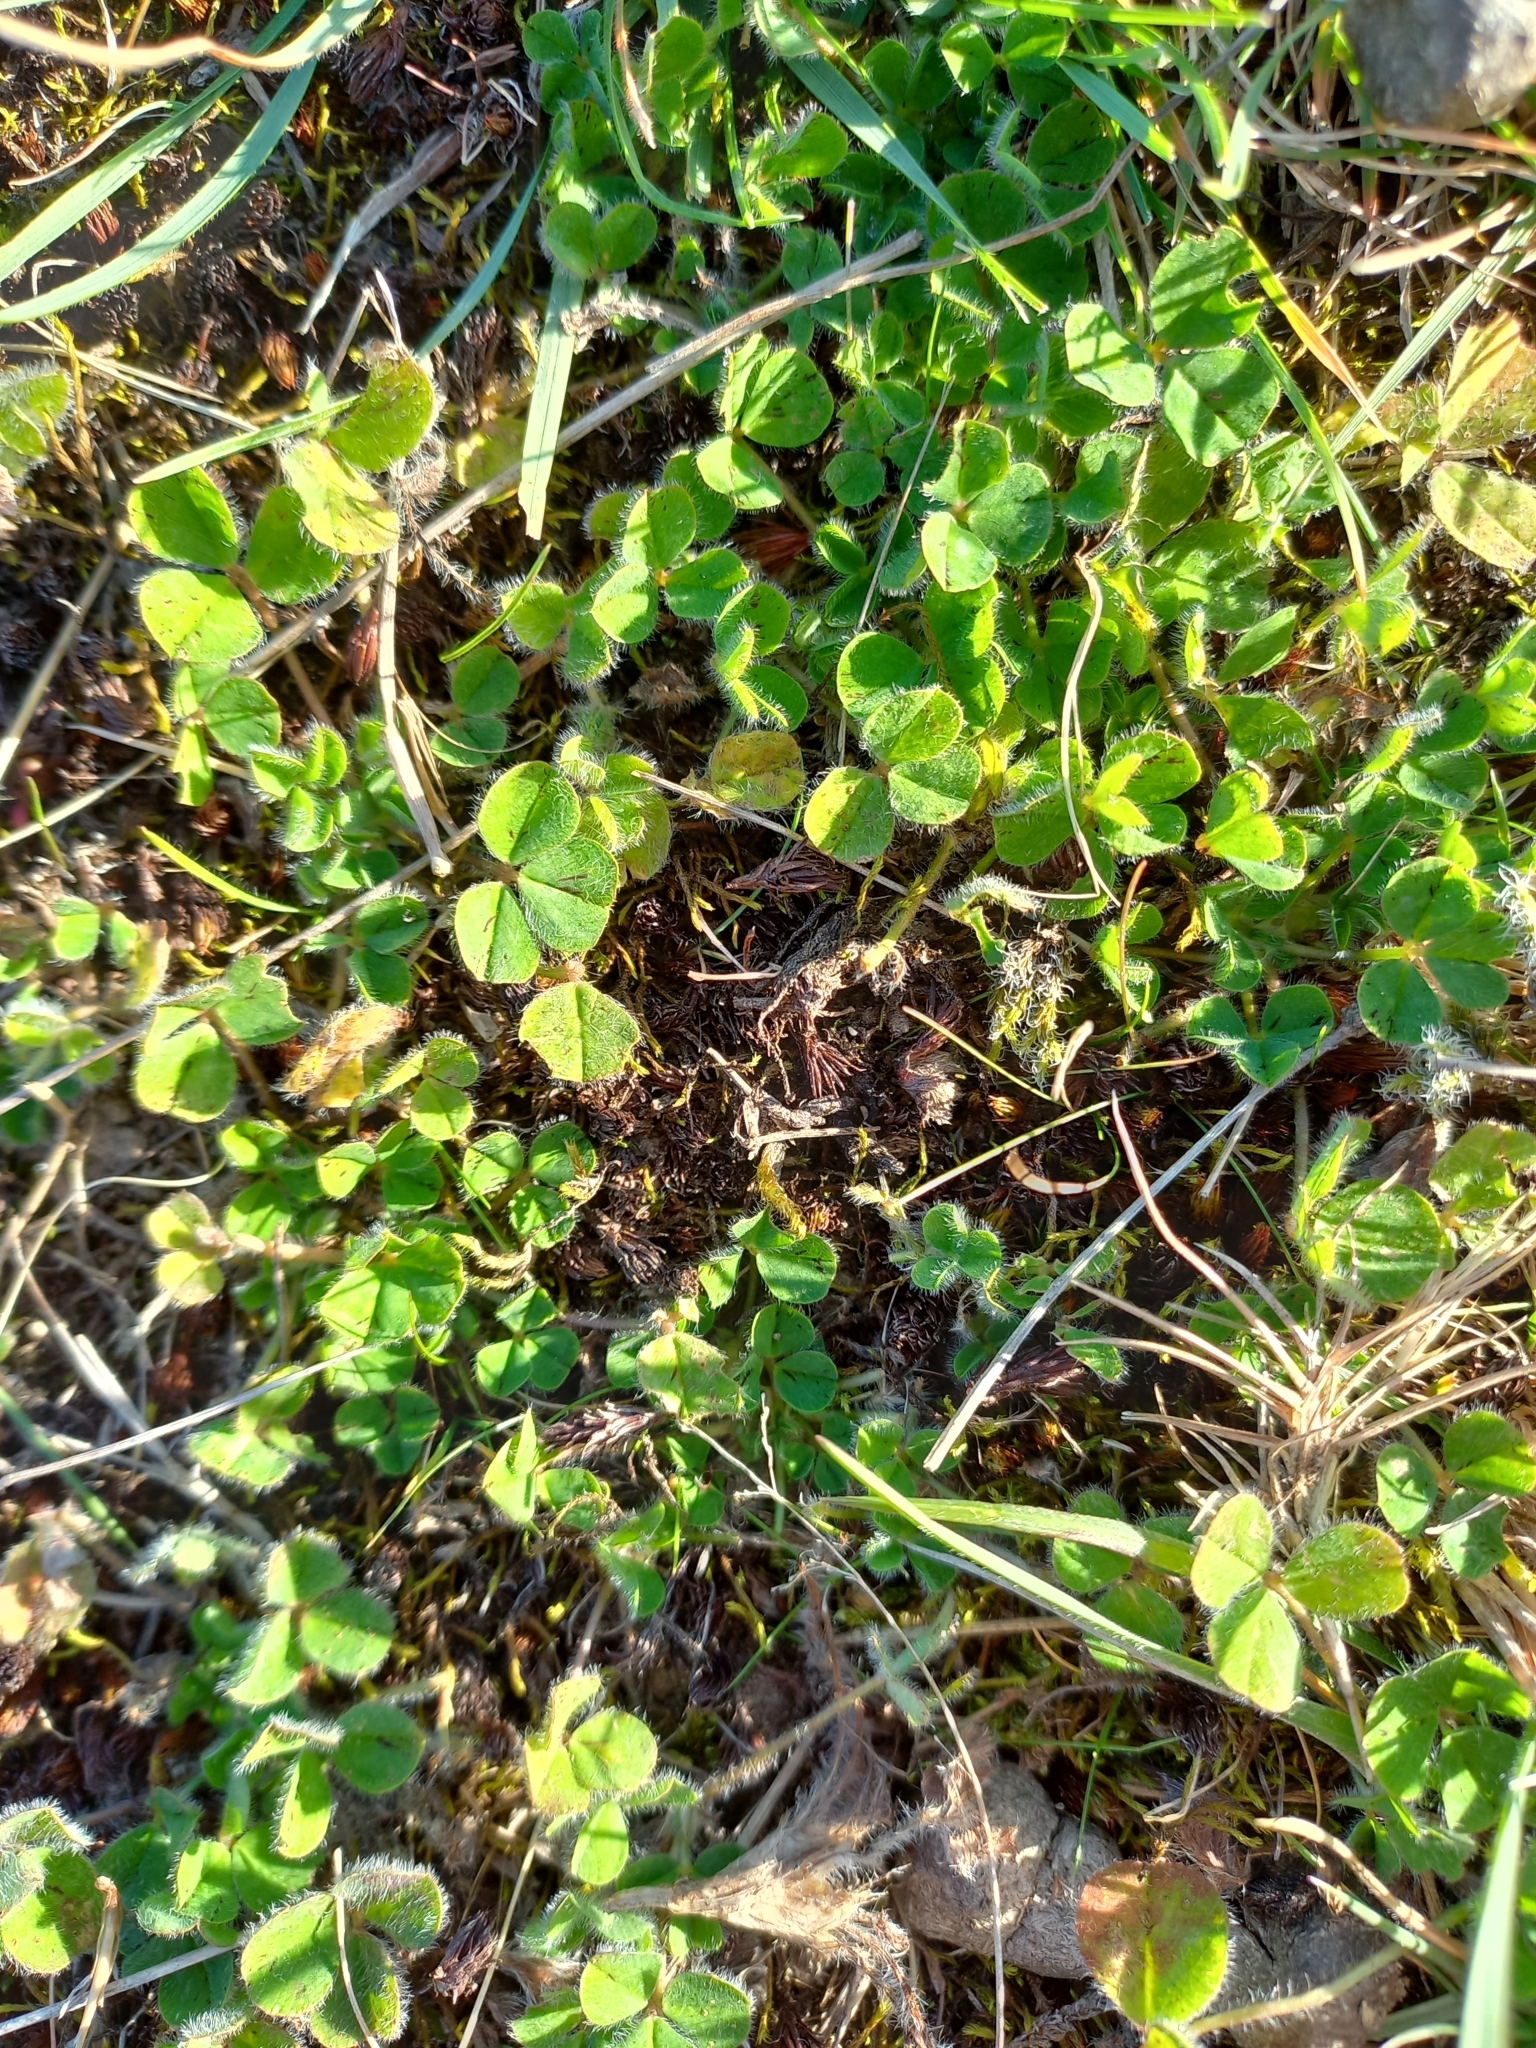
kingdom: Plantae
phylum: Tracheophyta
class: Magnoliopsida
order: Fabales
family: Fabaceae
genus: Trifolium
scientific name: Trifolium subterraneum
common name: Subterranean clover
